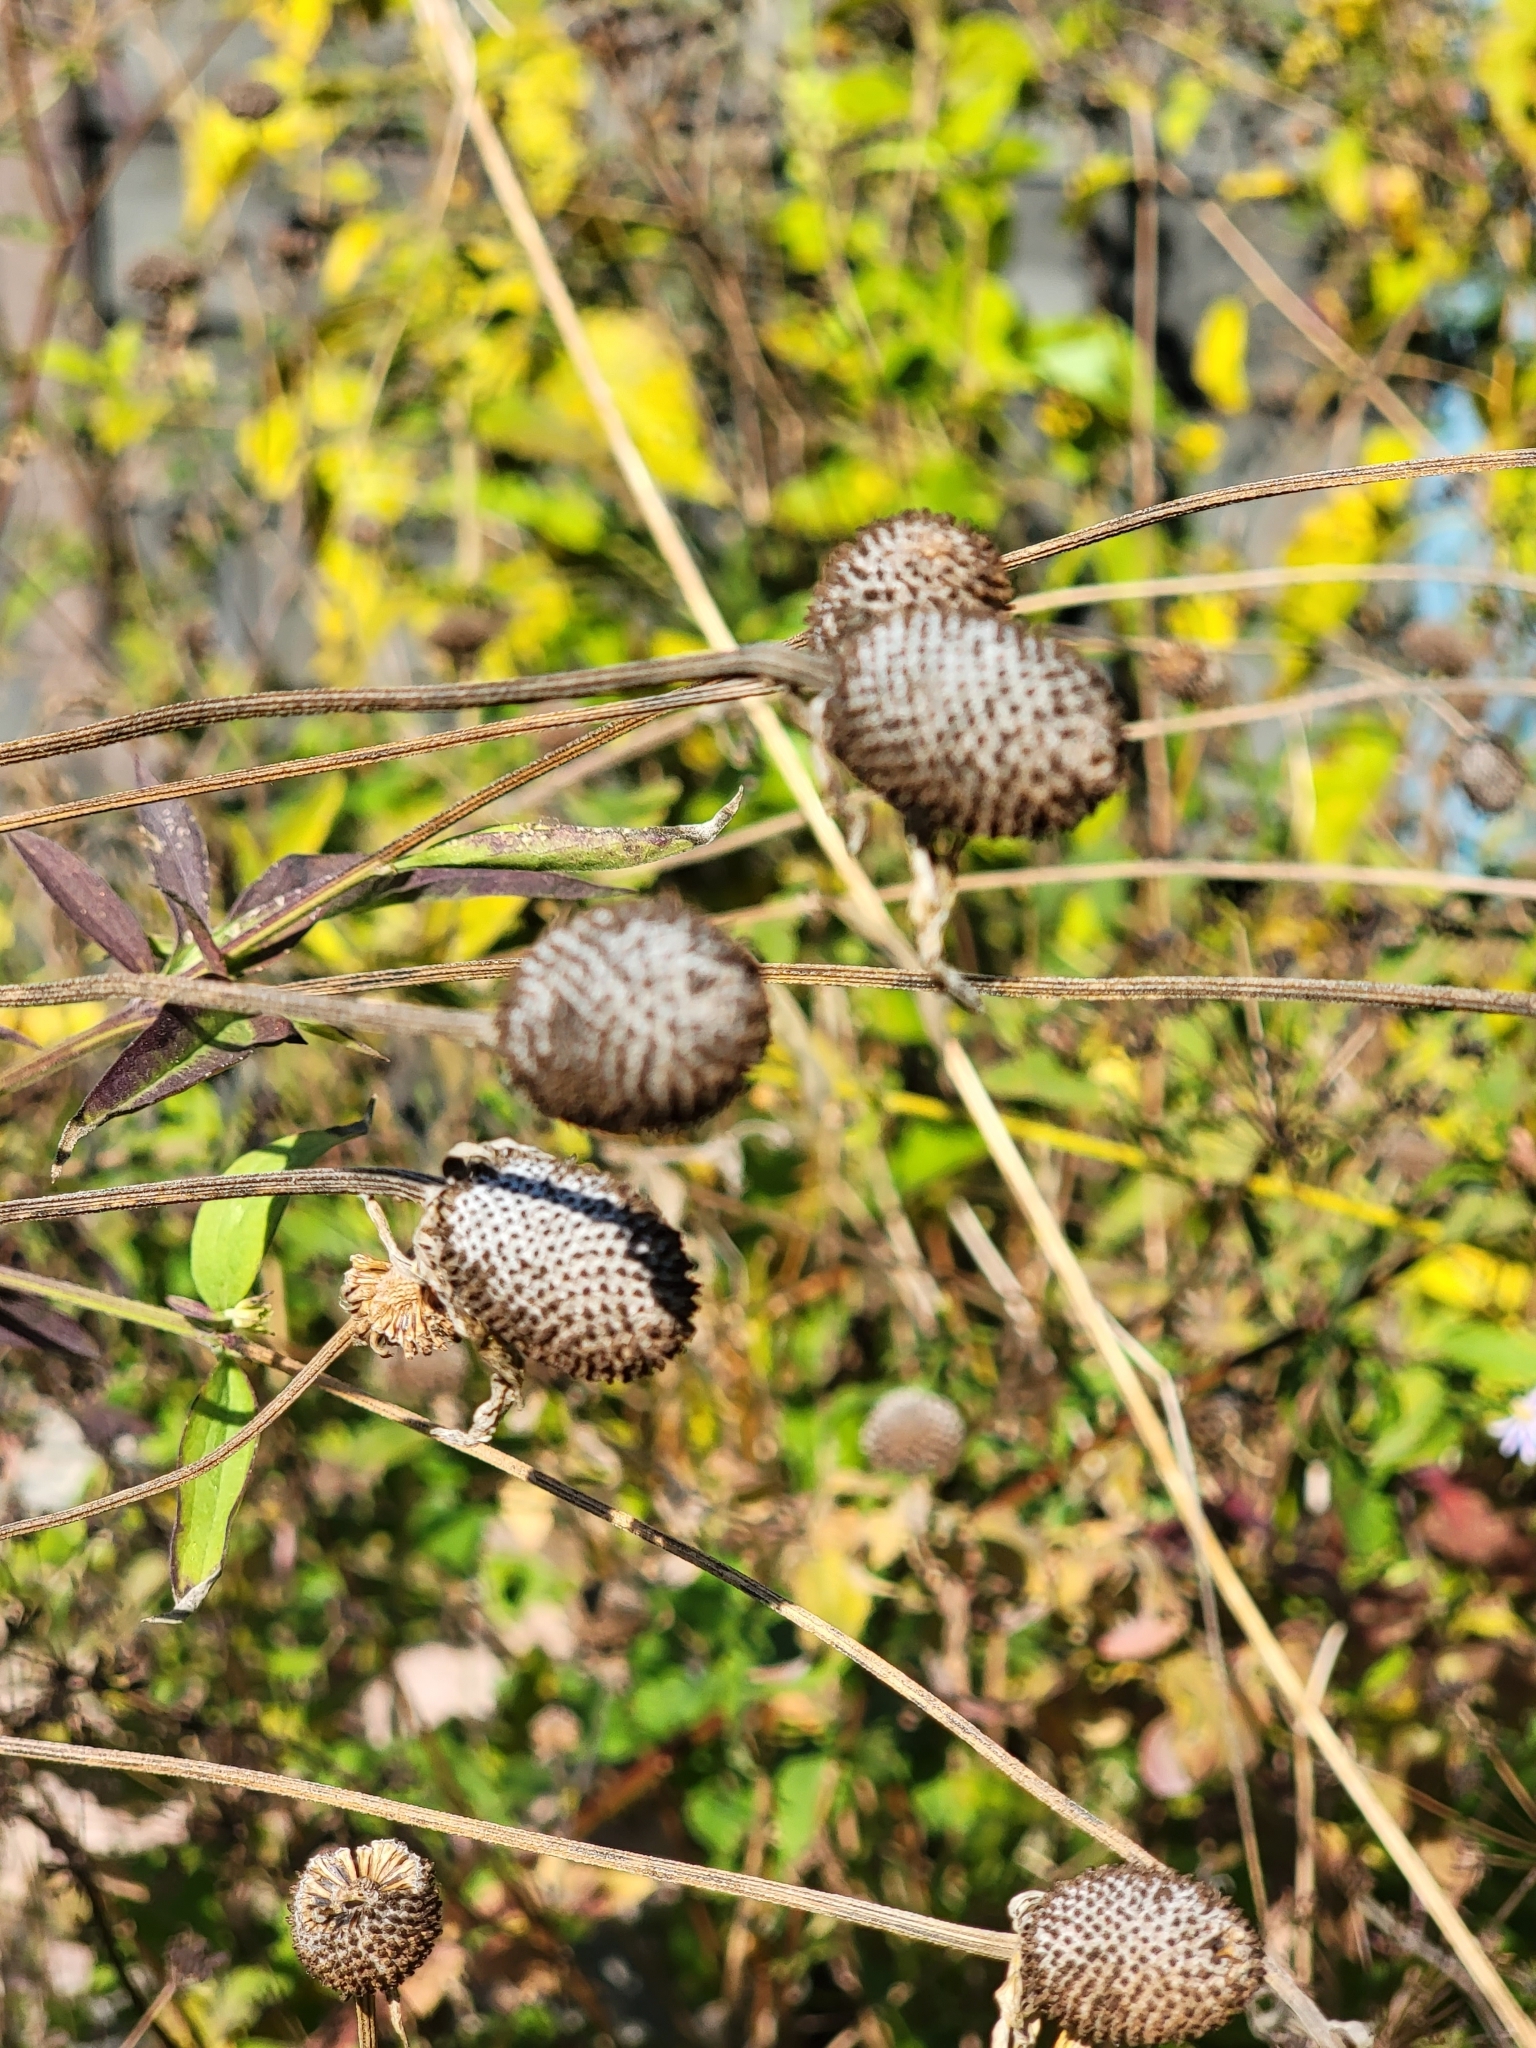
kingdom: Plantae
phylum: Tracheophyta
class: Magnoliopsida
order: Asterales
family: Asteraceae
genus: Ratibida
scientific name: Ratibida pinnata
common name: Drooping prairie-coneflower
